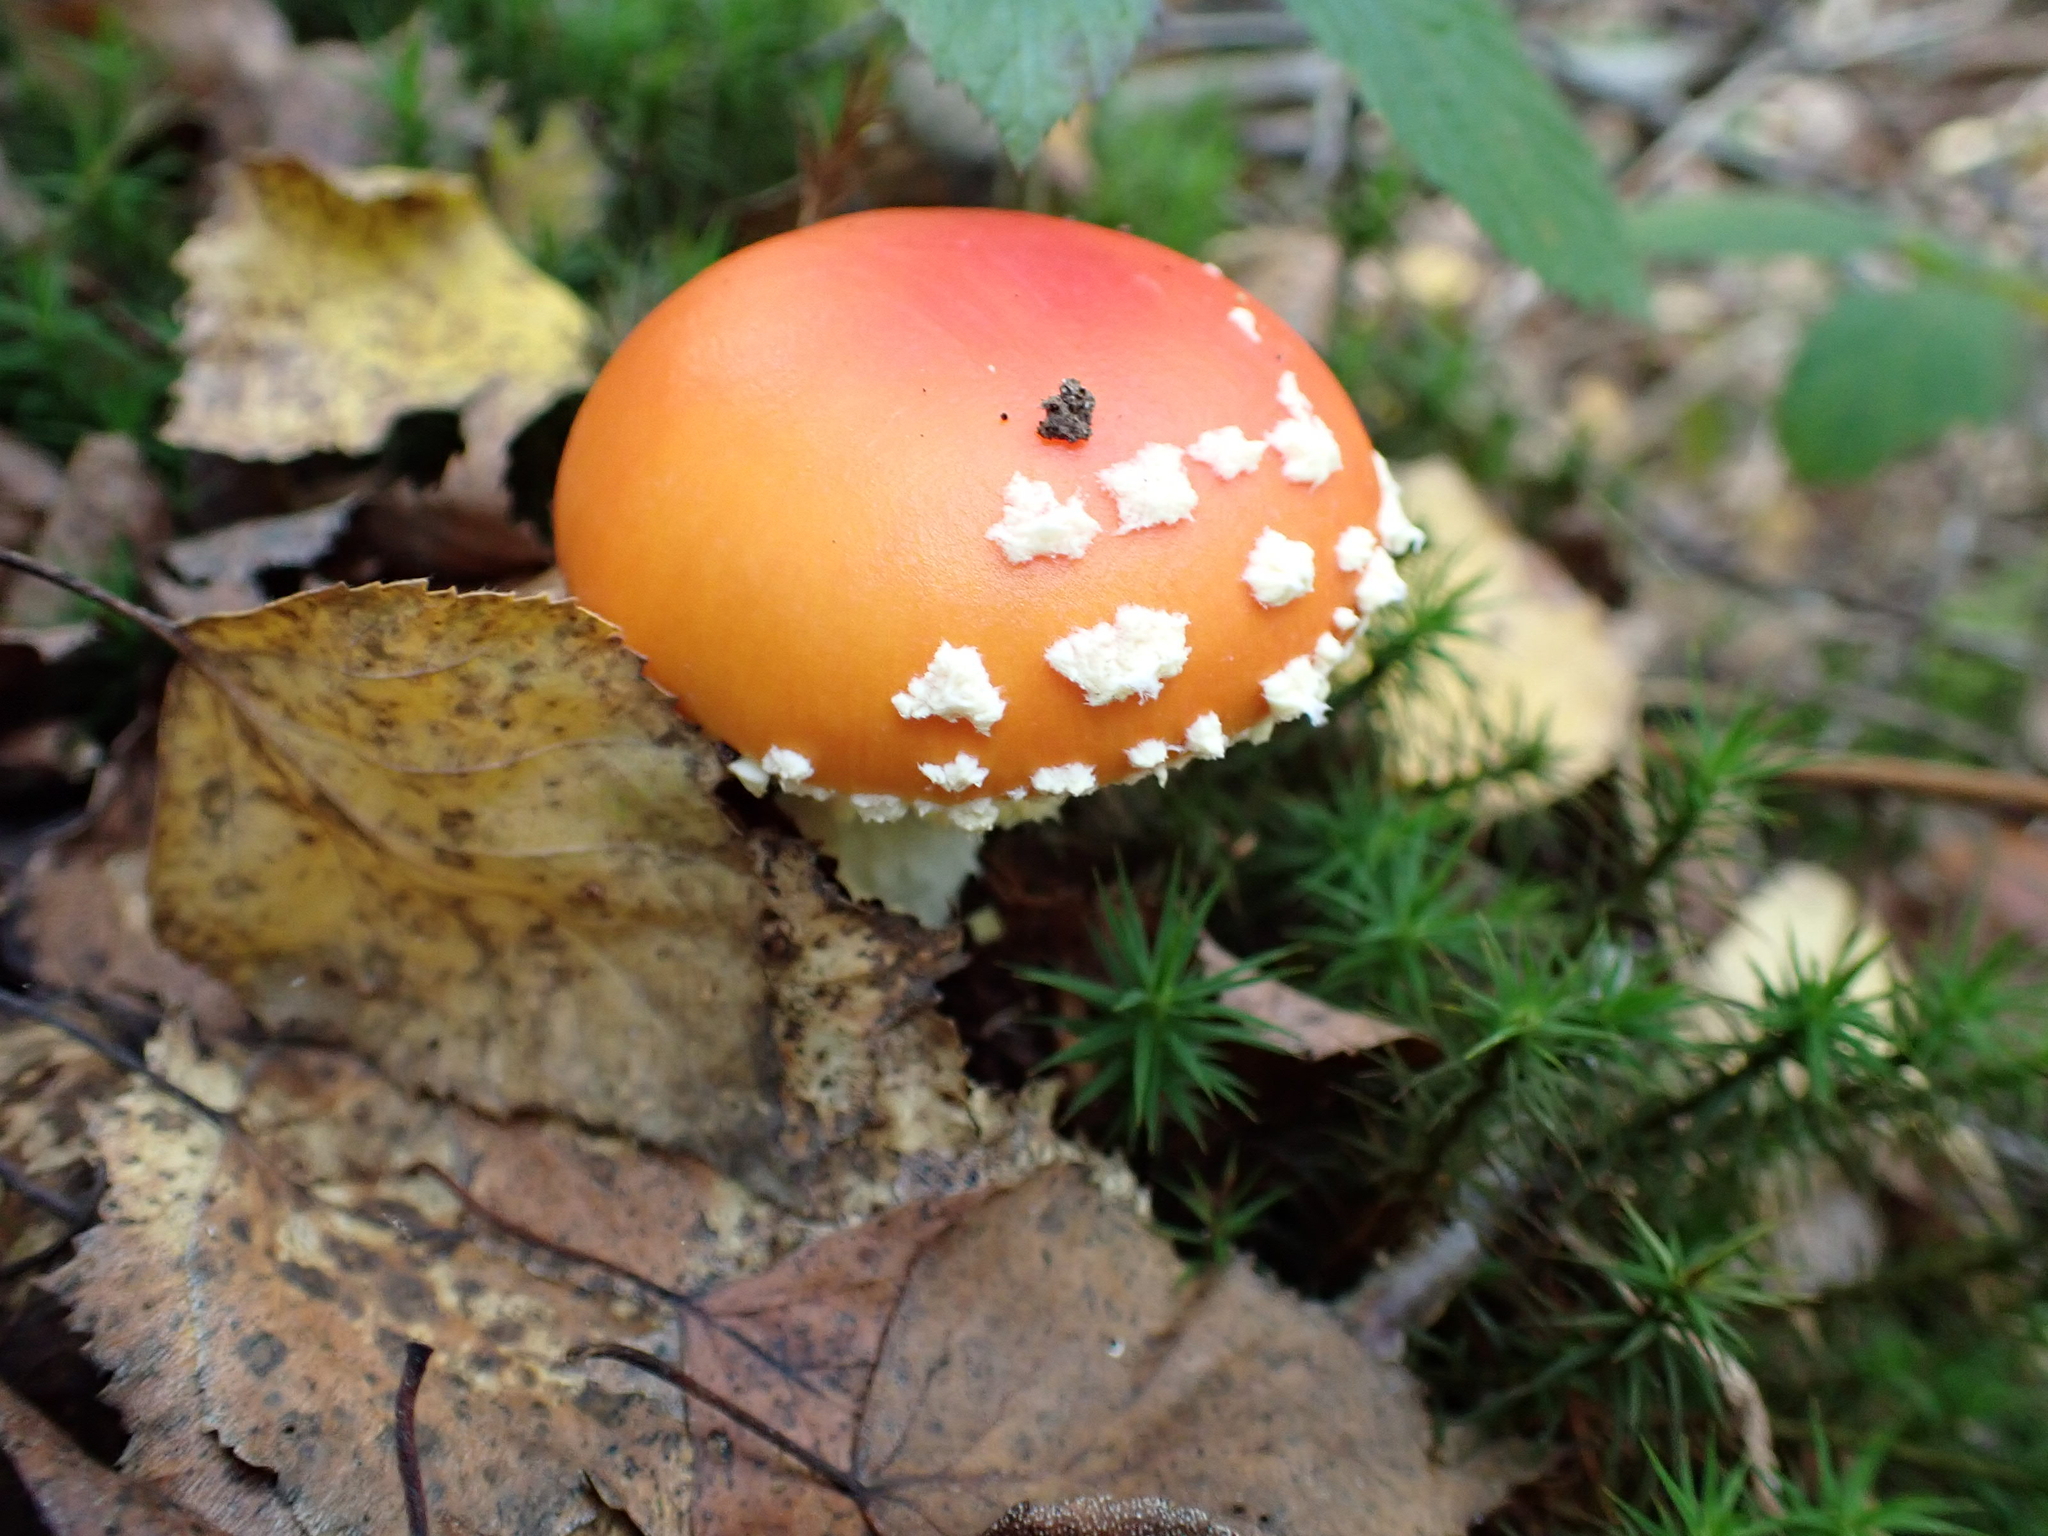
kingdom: Fungi
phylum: Basidiomycota
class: Agaricomycetes
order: Agaricales
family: Amanitaceae
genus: Amanita
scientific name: Amanita muscaria
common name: Fly agaric
